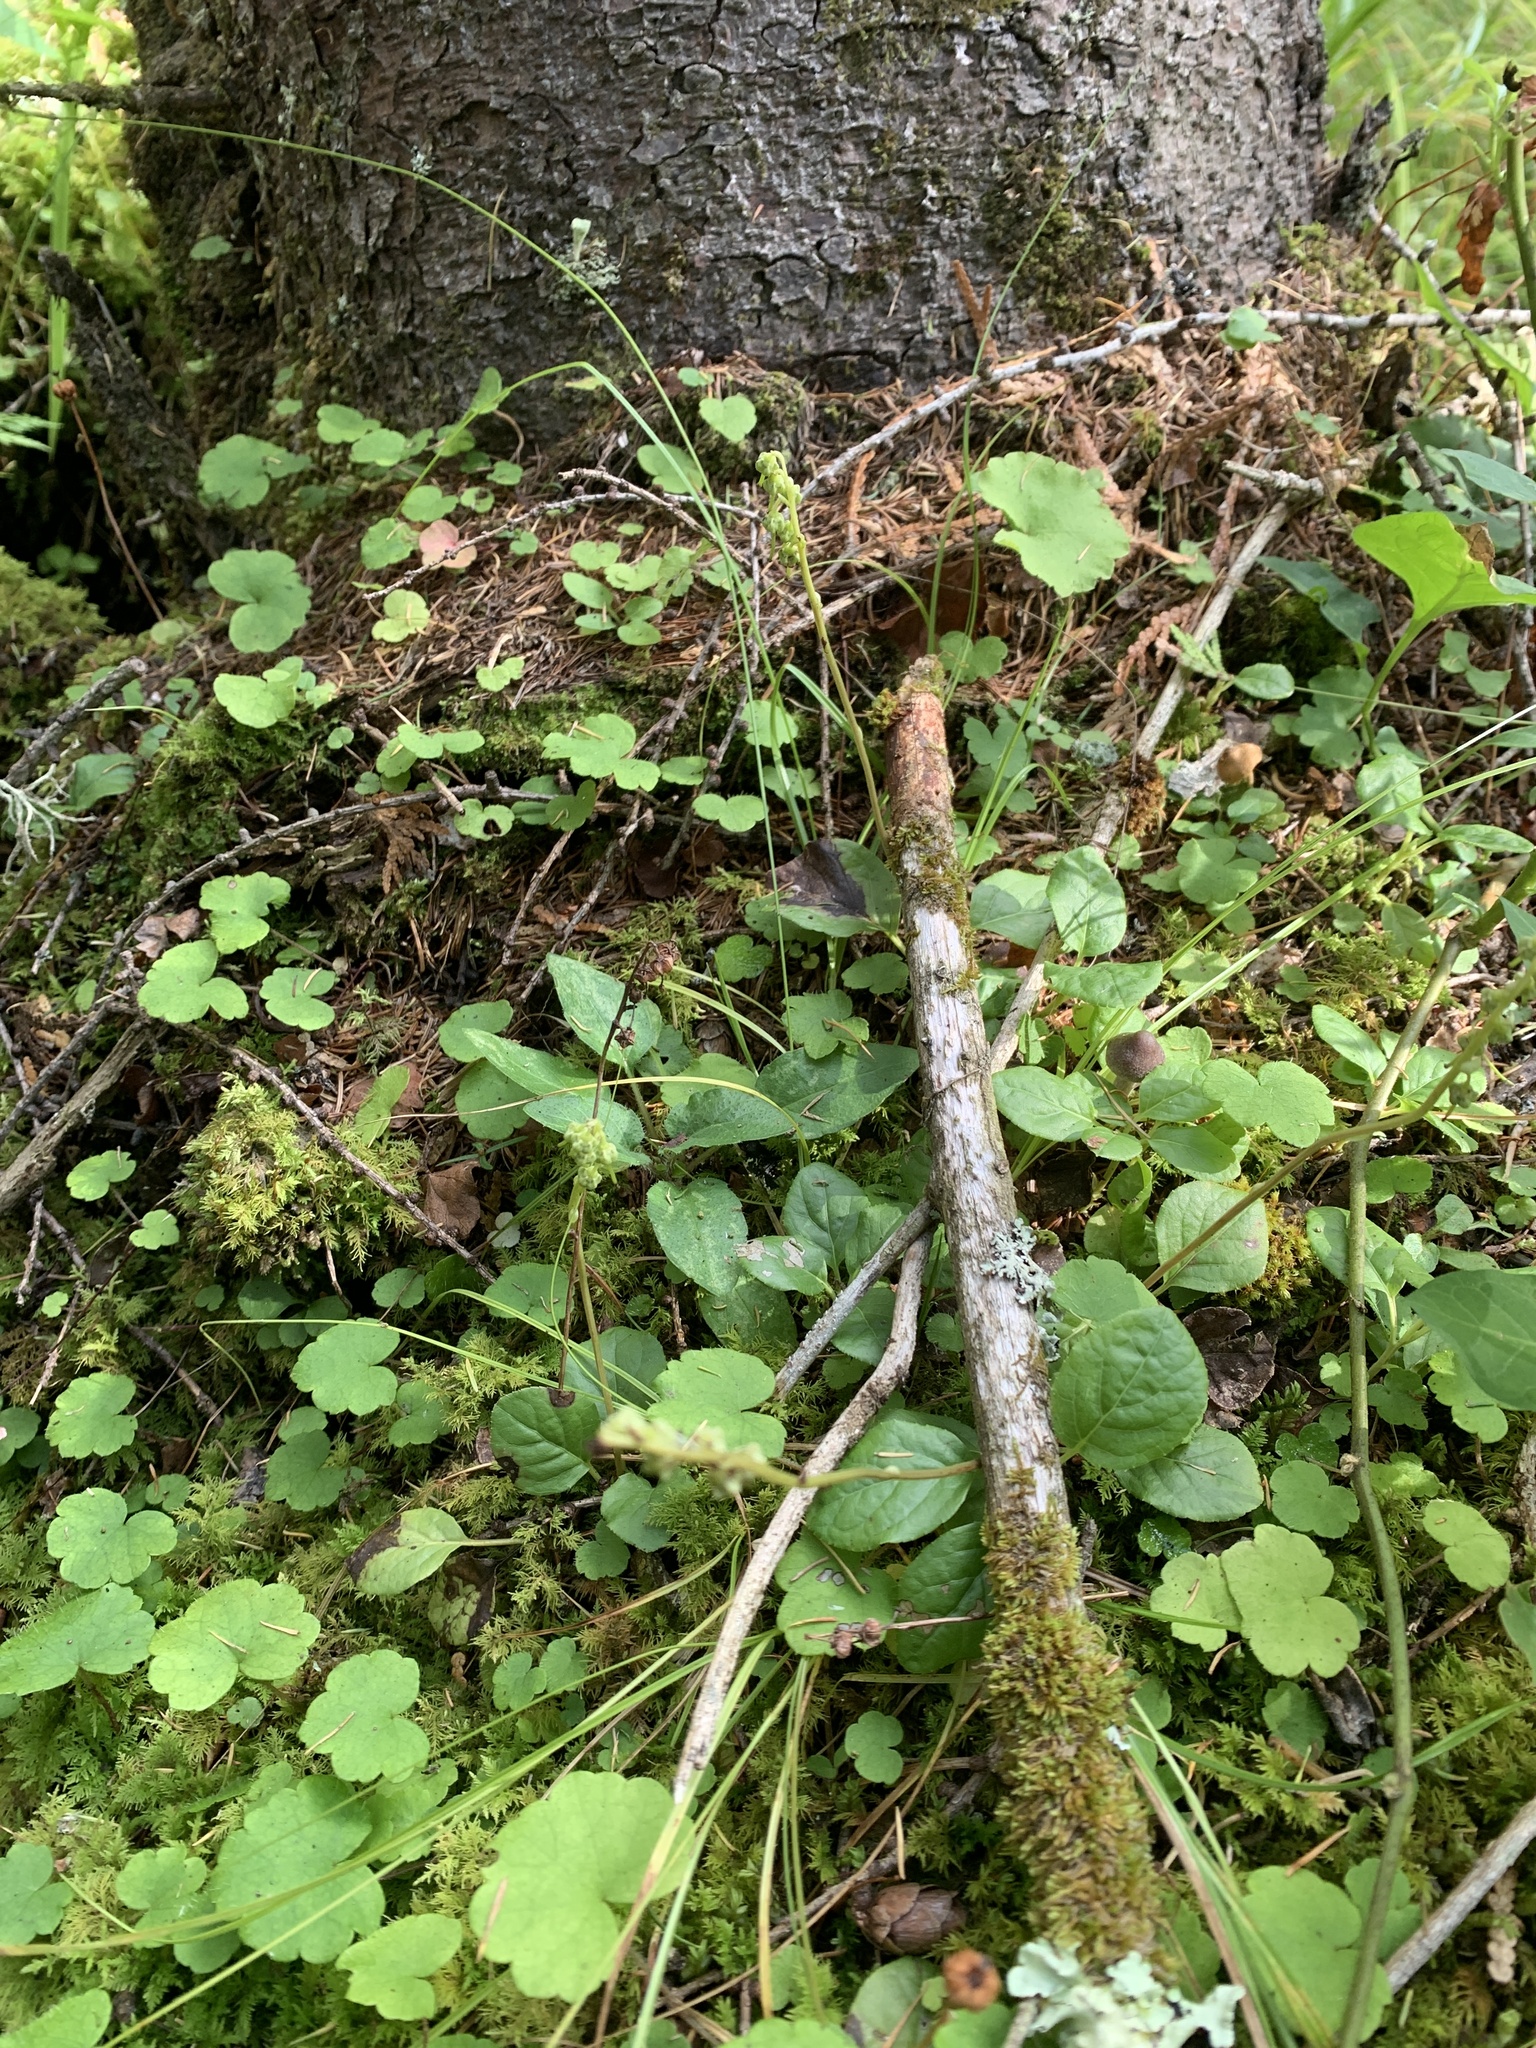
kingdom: Plantae
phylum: Tracheophyta
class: Magnoliopsida
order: Ericales
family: Ericaceae
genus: Orthilia
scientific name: Orthilia secunda
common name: One-sided orthilia
